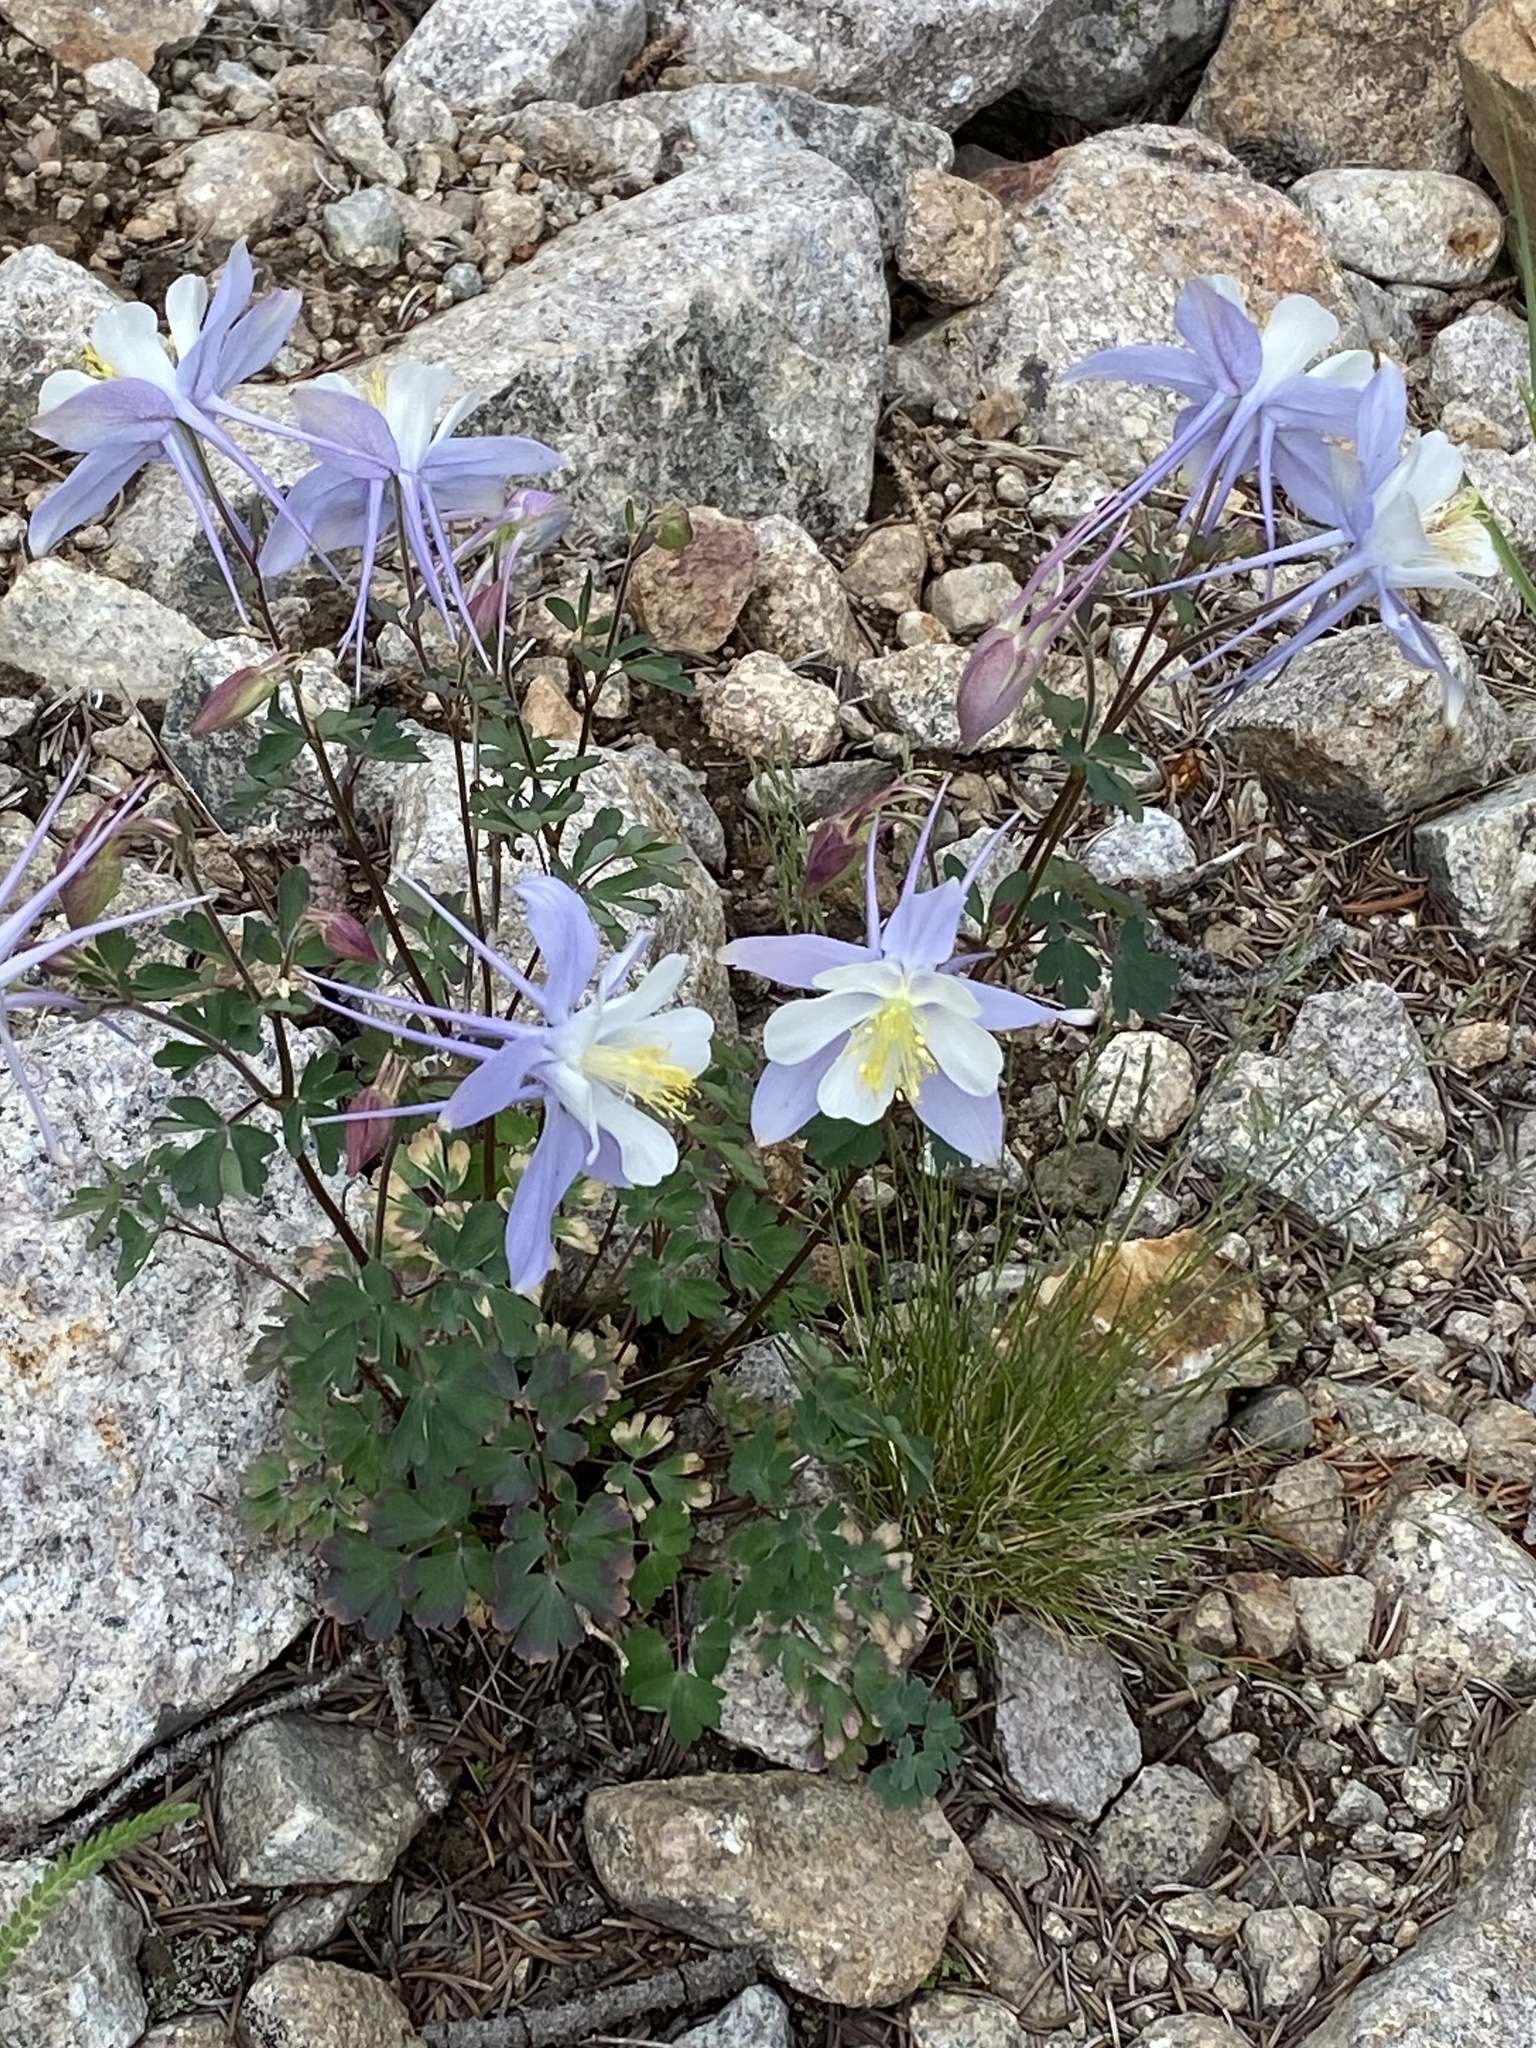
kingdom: Plantae
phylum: Tracheophyta
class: Magnoliopsida
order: Ranunculales
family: Ranunculaceae
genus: Aquilegia
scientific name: Aquilegia coerulea
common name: Rocky mountain columbine
